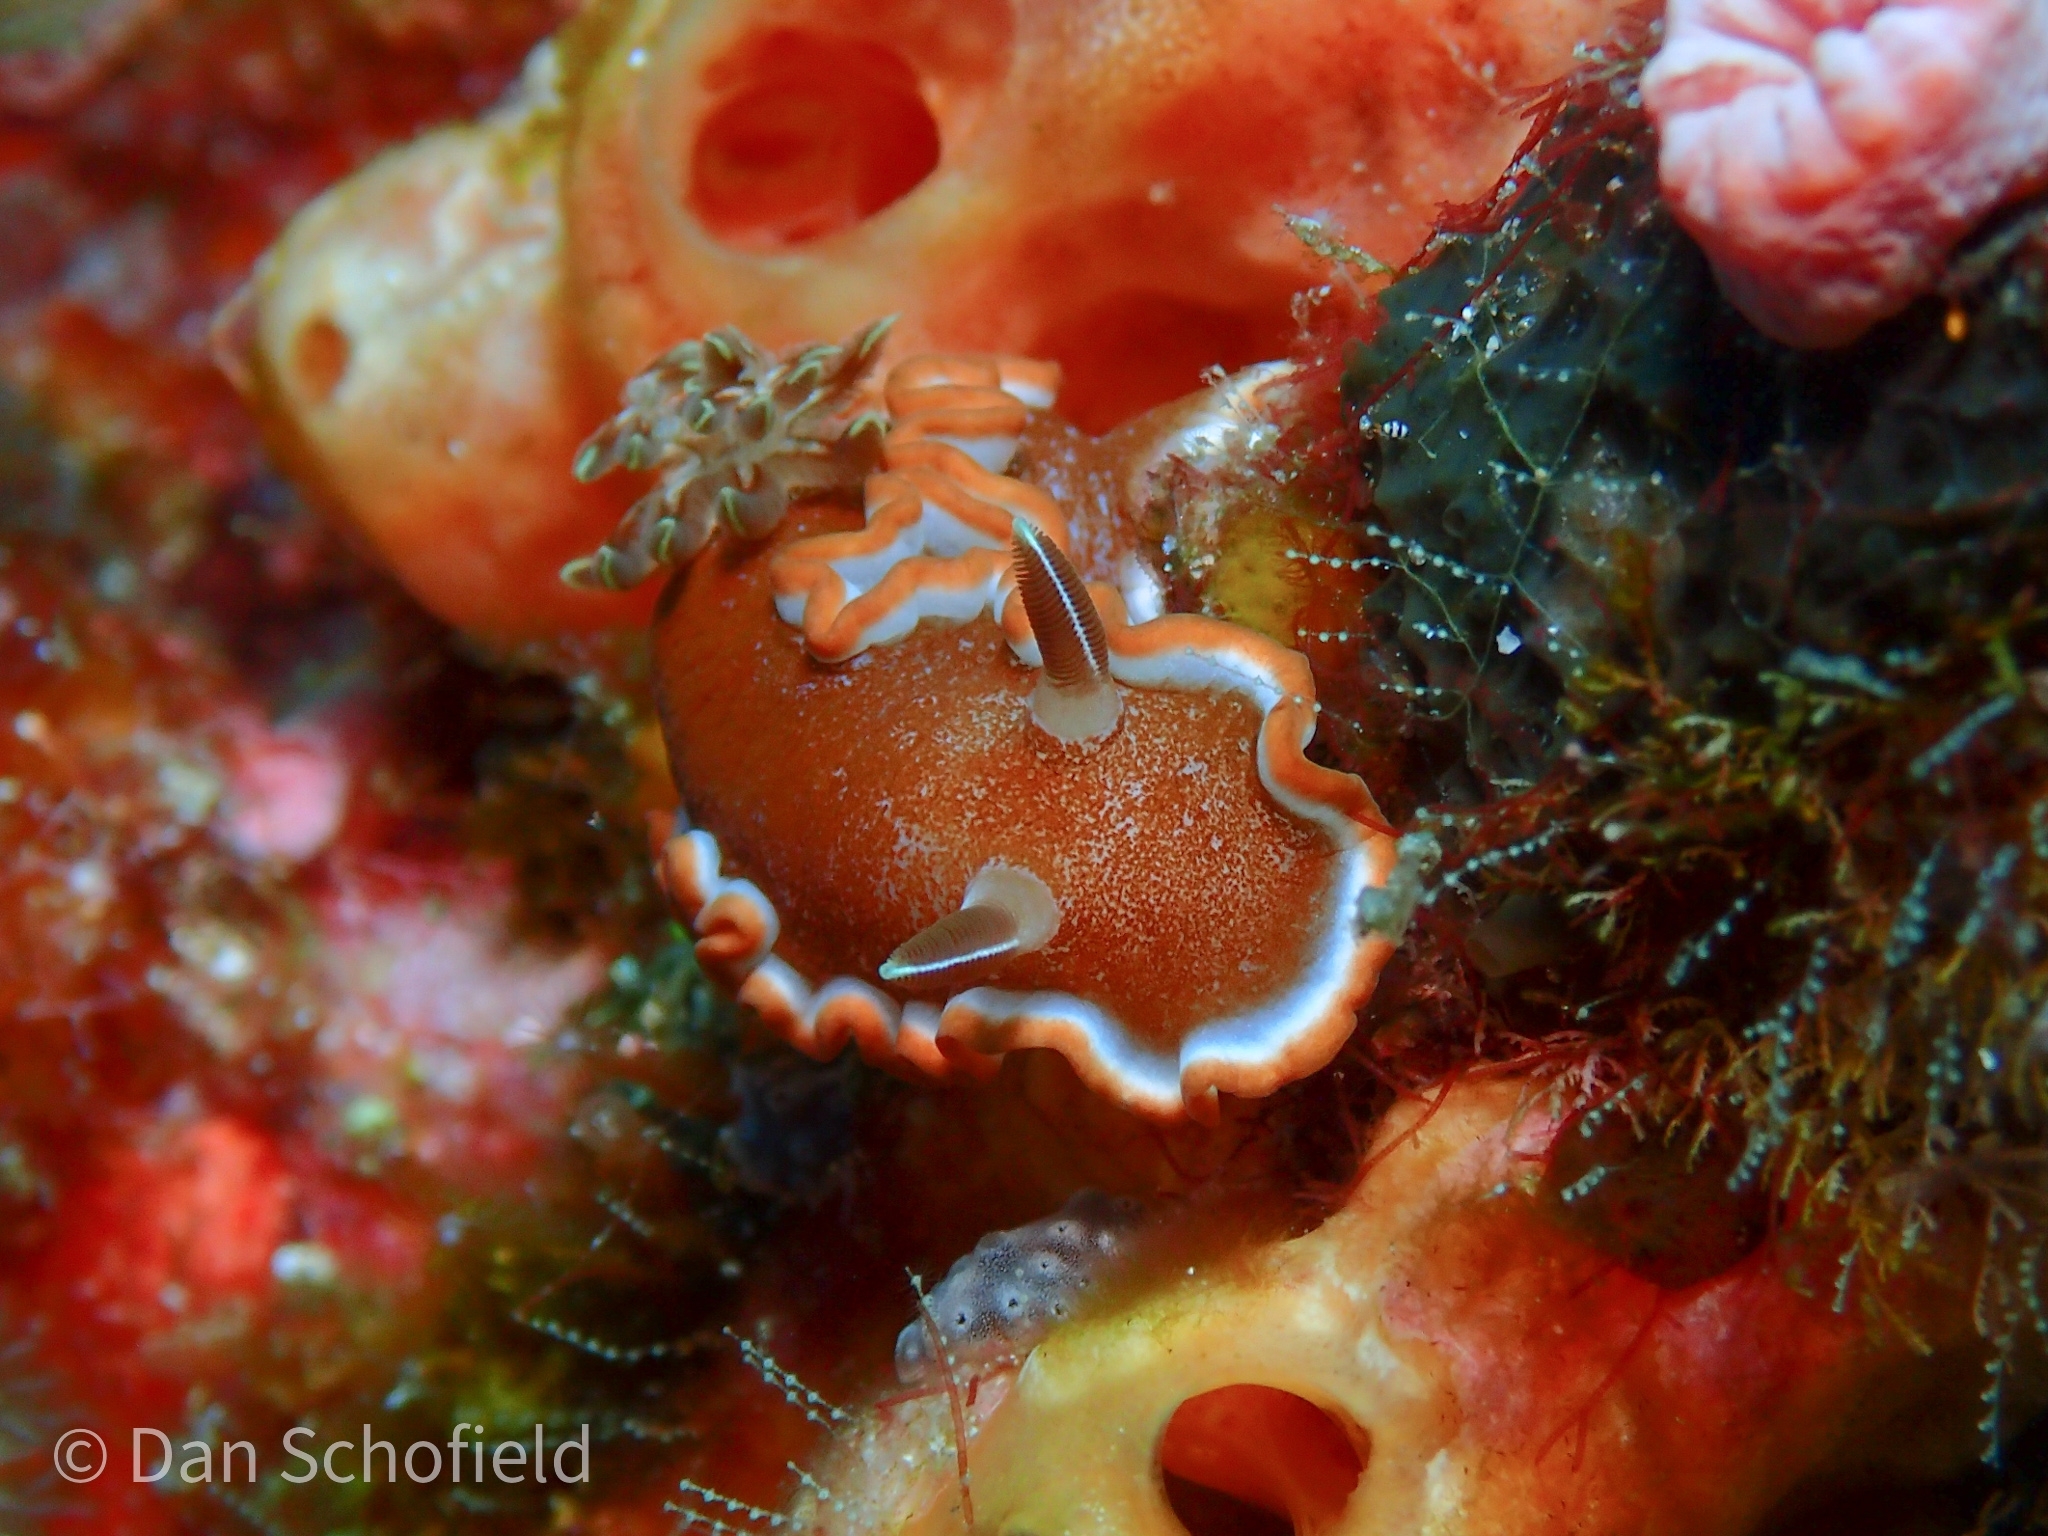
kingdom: Animalia
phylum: Mollusca
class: Gastropoda
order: Nudibranchia
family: Chromodorididae
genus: Glossodoris
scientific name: Glossodoris rufomarginata
